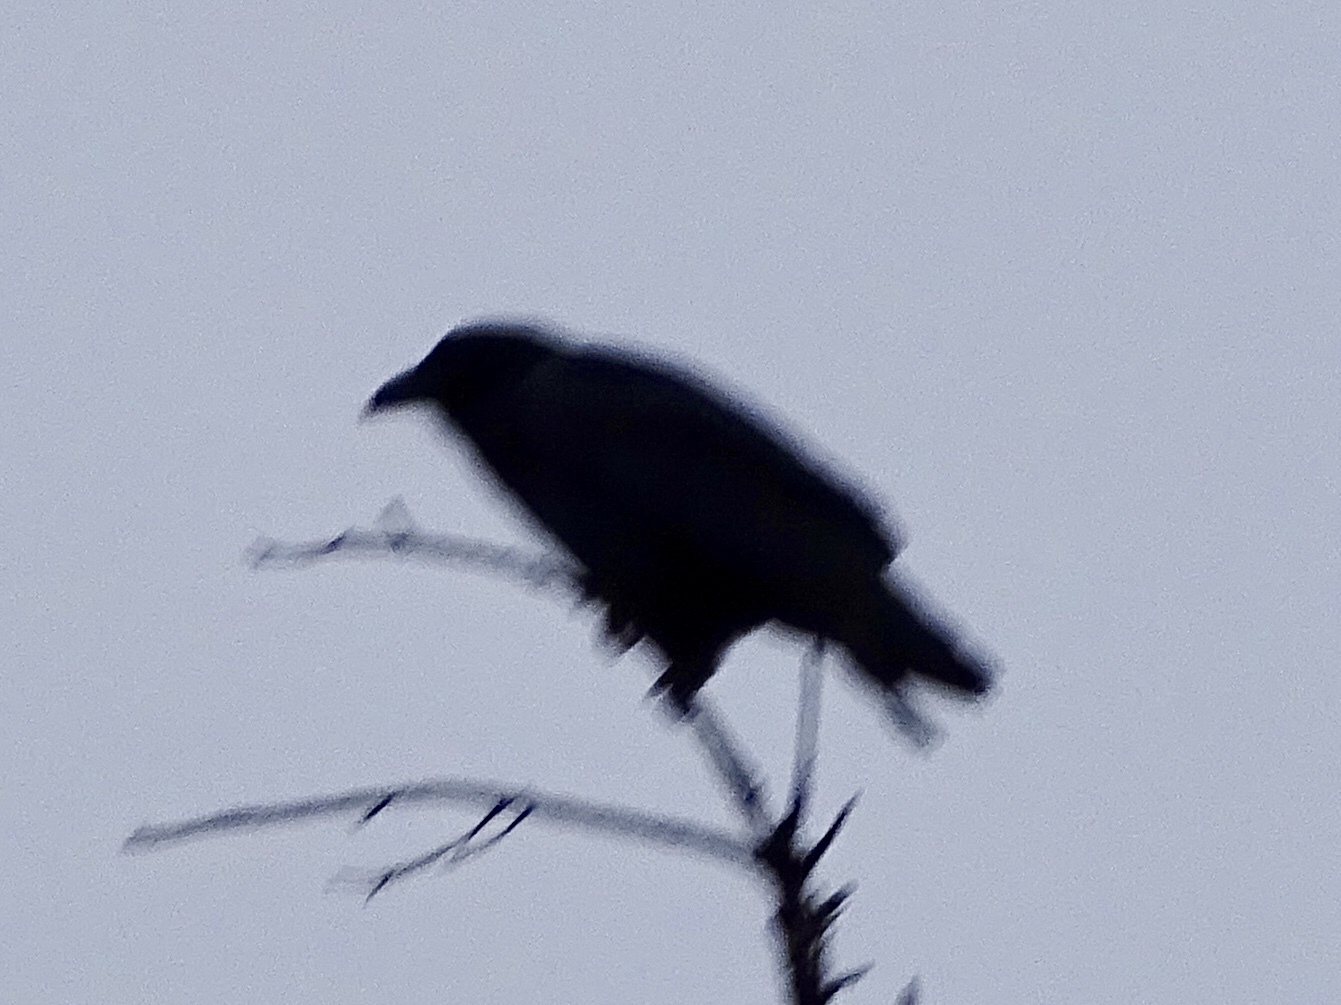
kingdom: Animalia
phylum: Chordata
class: Aves
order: Passeriformes
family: Corvidae
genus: Corvus
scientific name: Corvus corax
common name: Common raven
